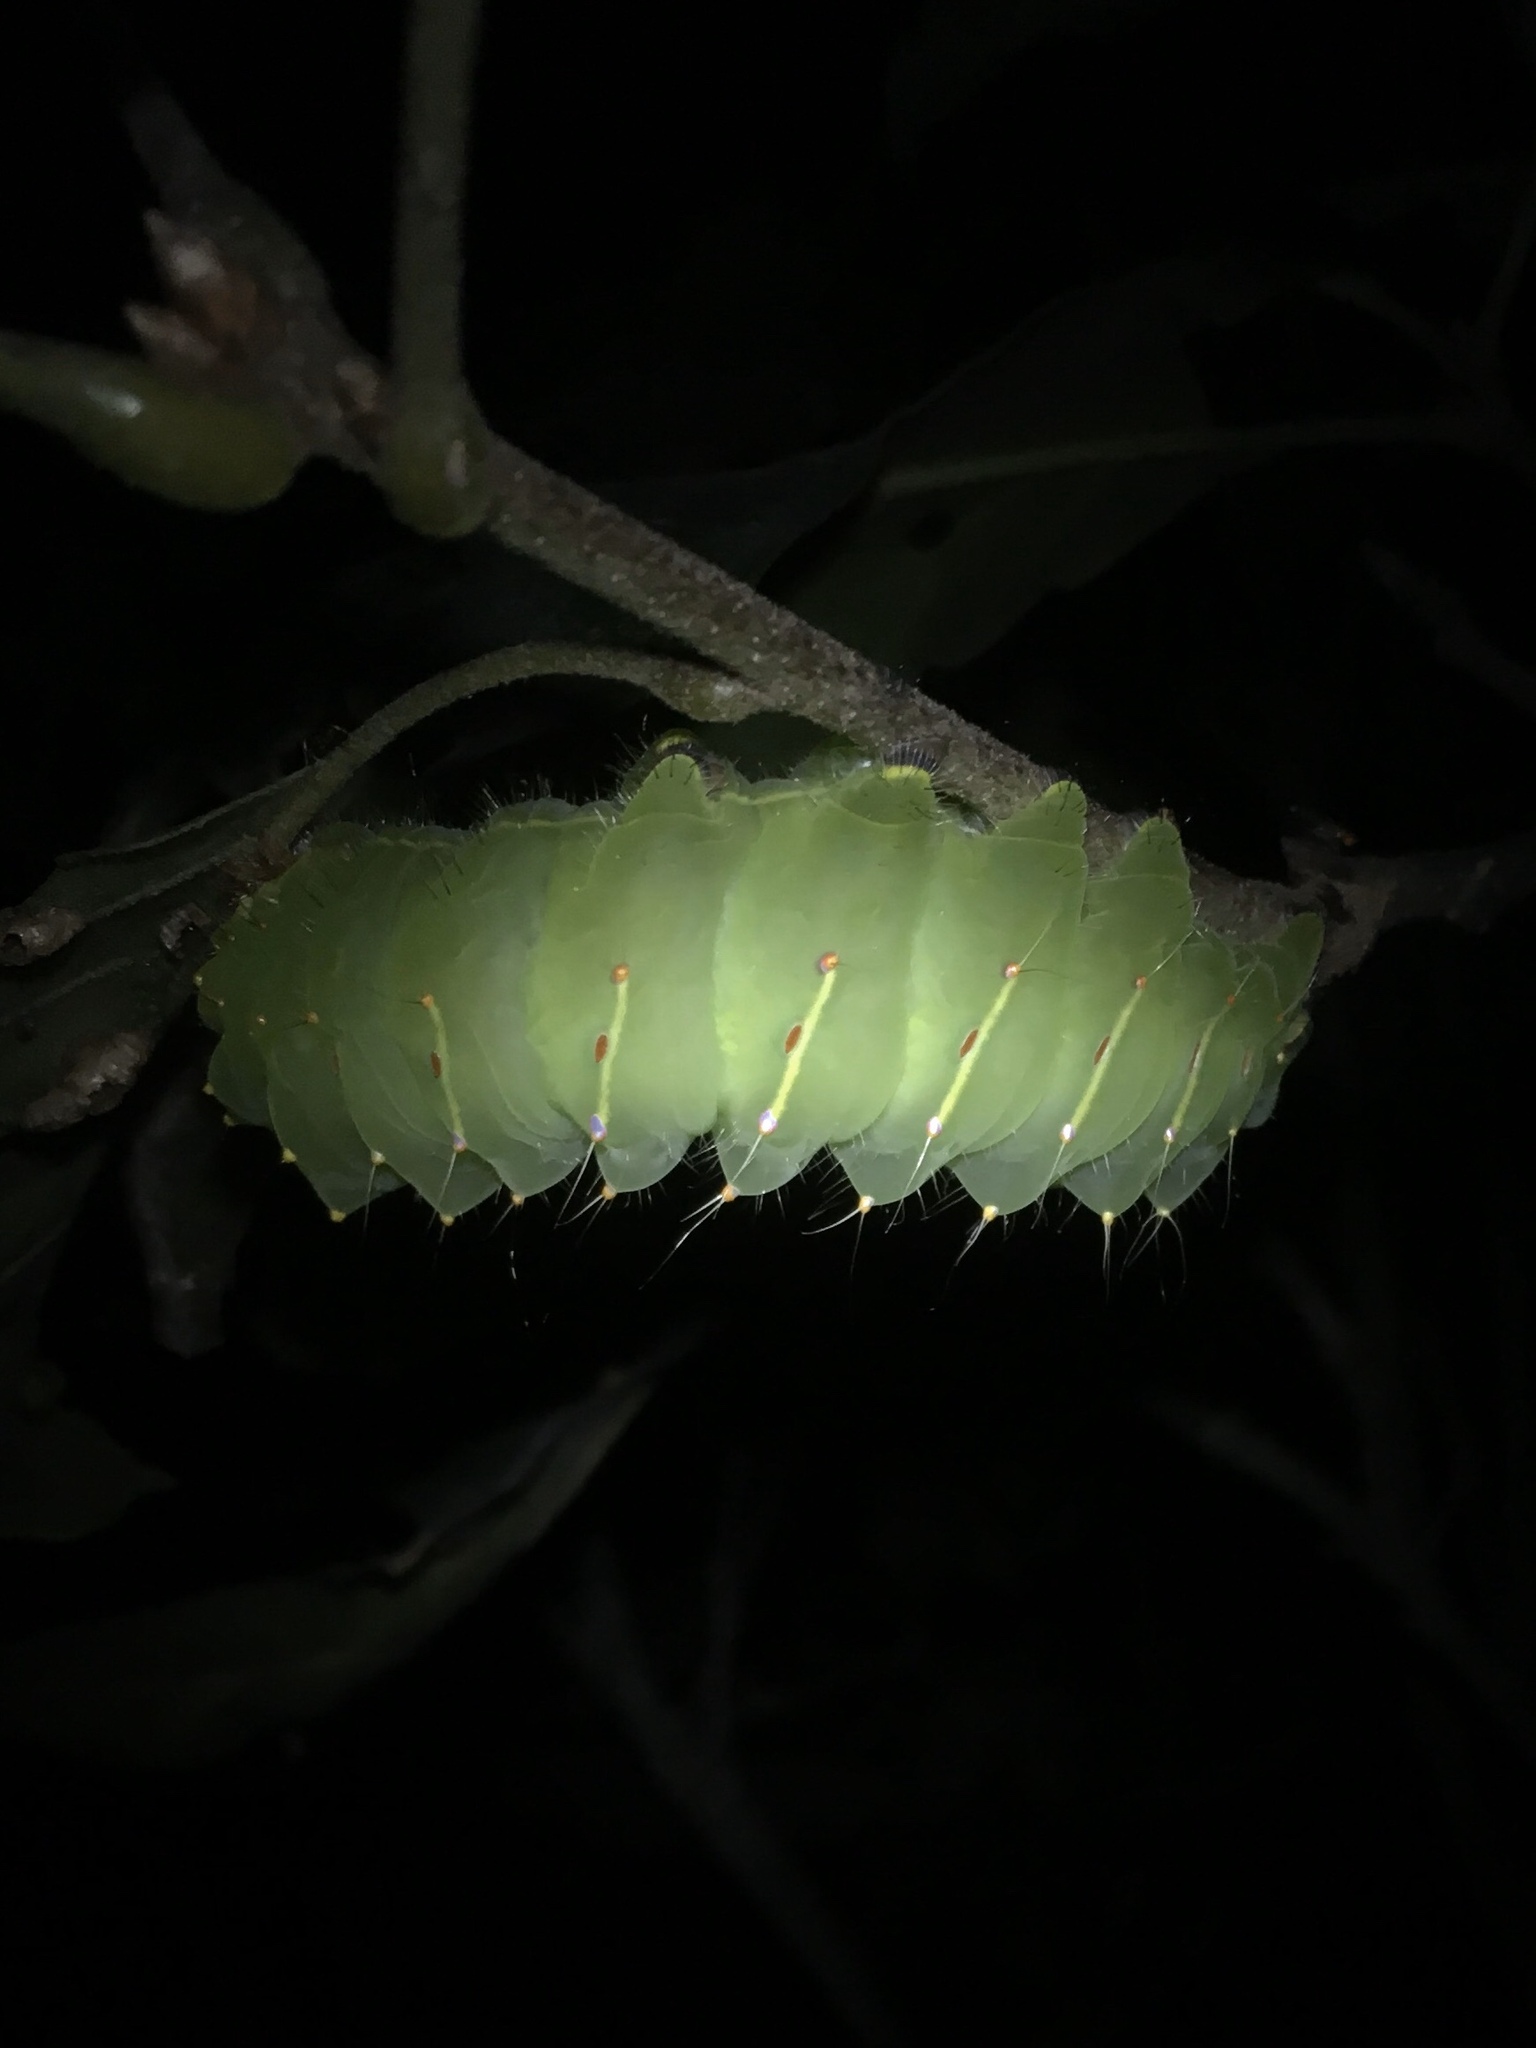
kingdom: Animalia
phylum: Arthropoda
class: Insecta
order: Lepidoptera
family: Saturniidae
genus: Antheraea
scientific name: Antheraea polyphemus
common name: Polyphemus moth
